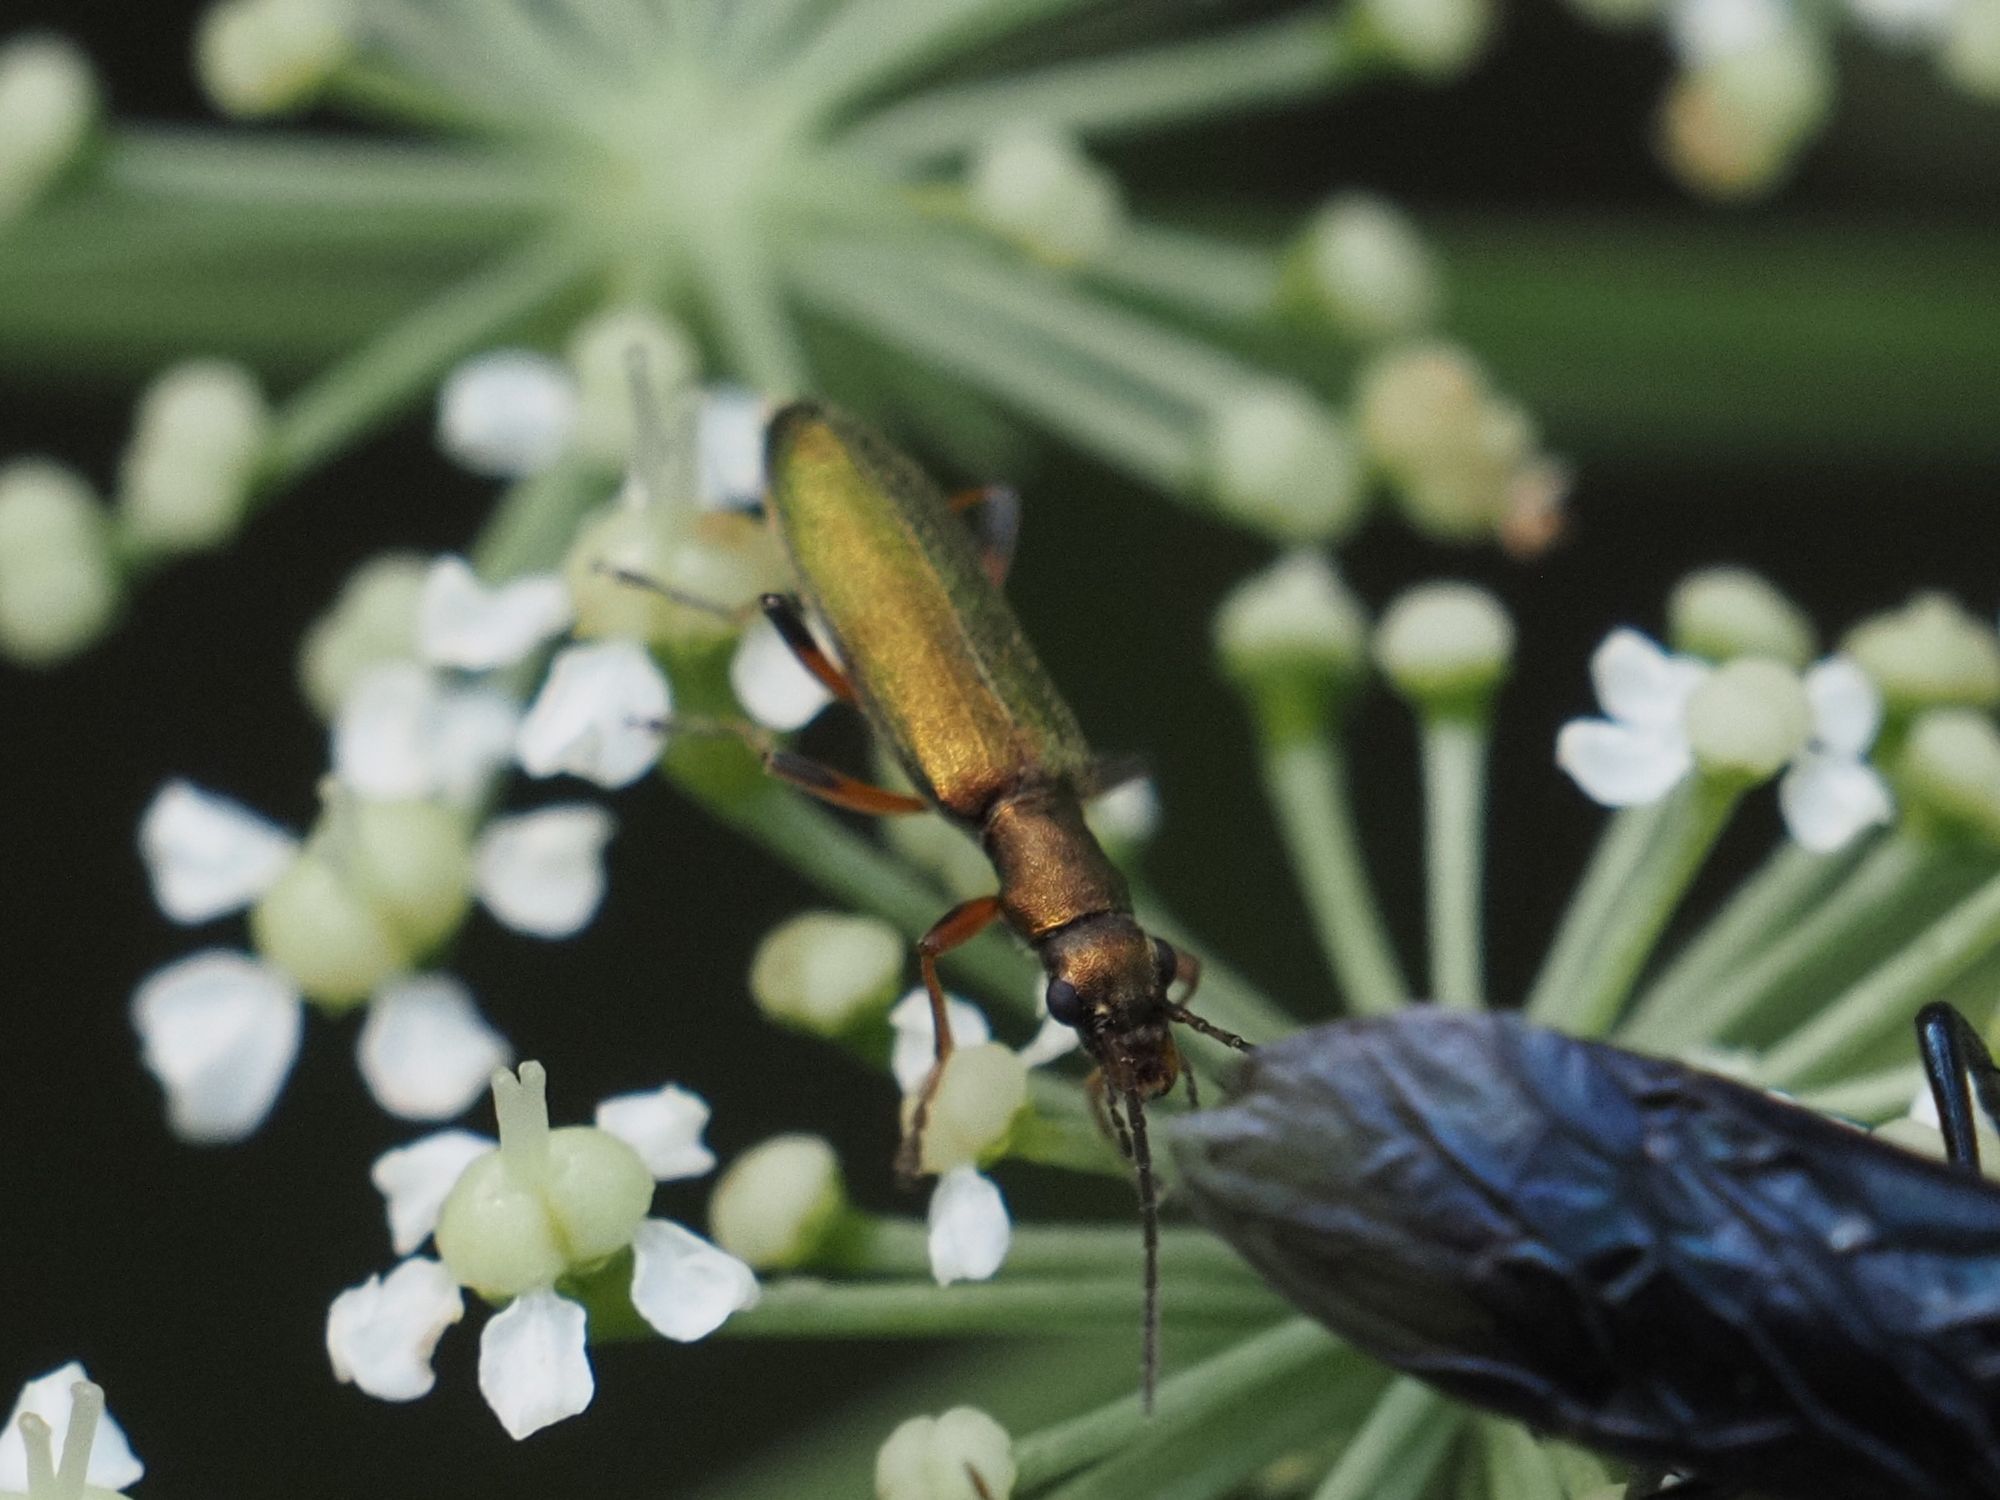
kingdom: Animalia
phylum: Arthropoda
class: Insecta
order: Coleoptera
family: Oedemeridae
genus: Chrysanthia
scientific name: Chrysanthia geniculata
